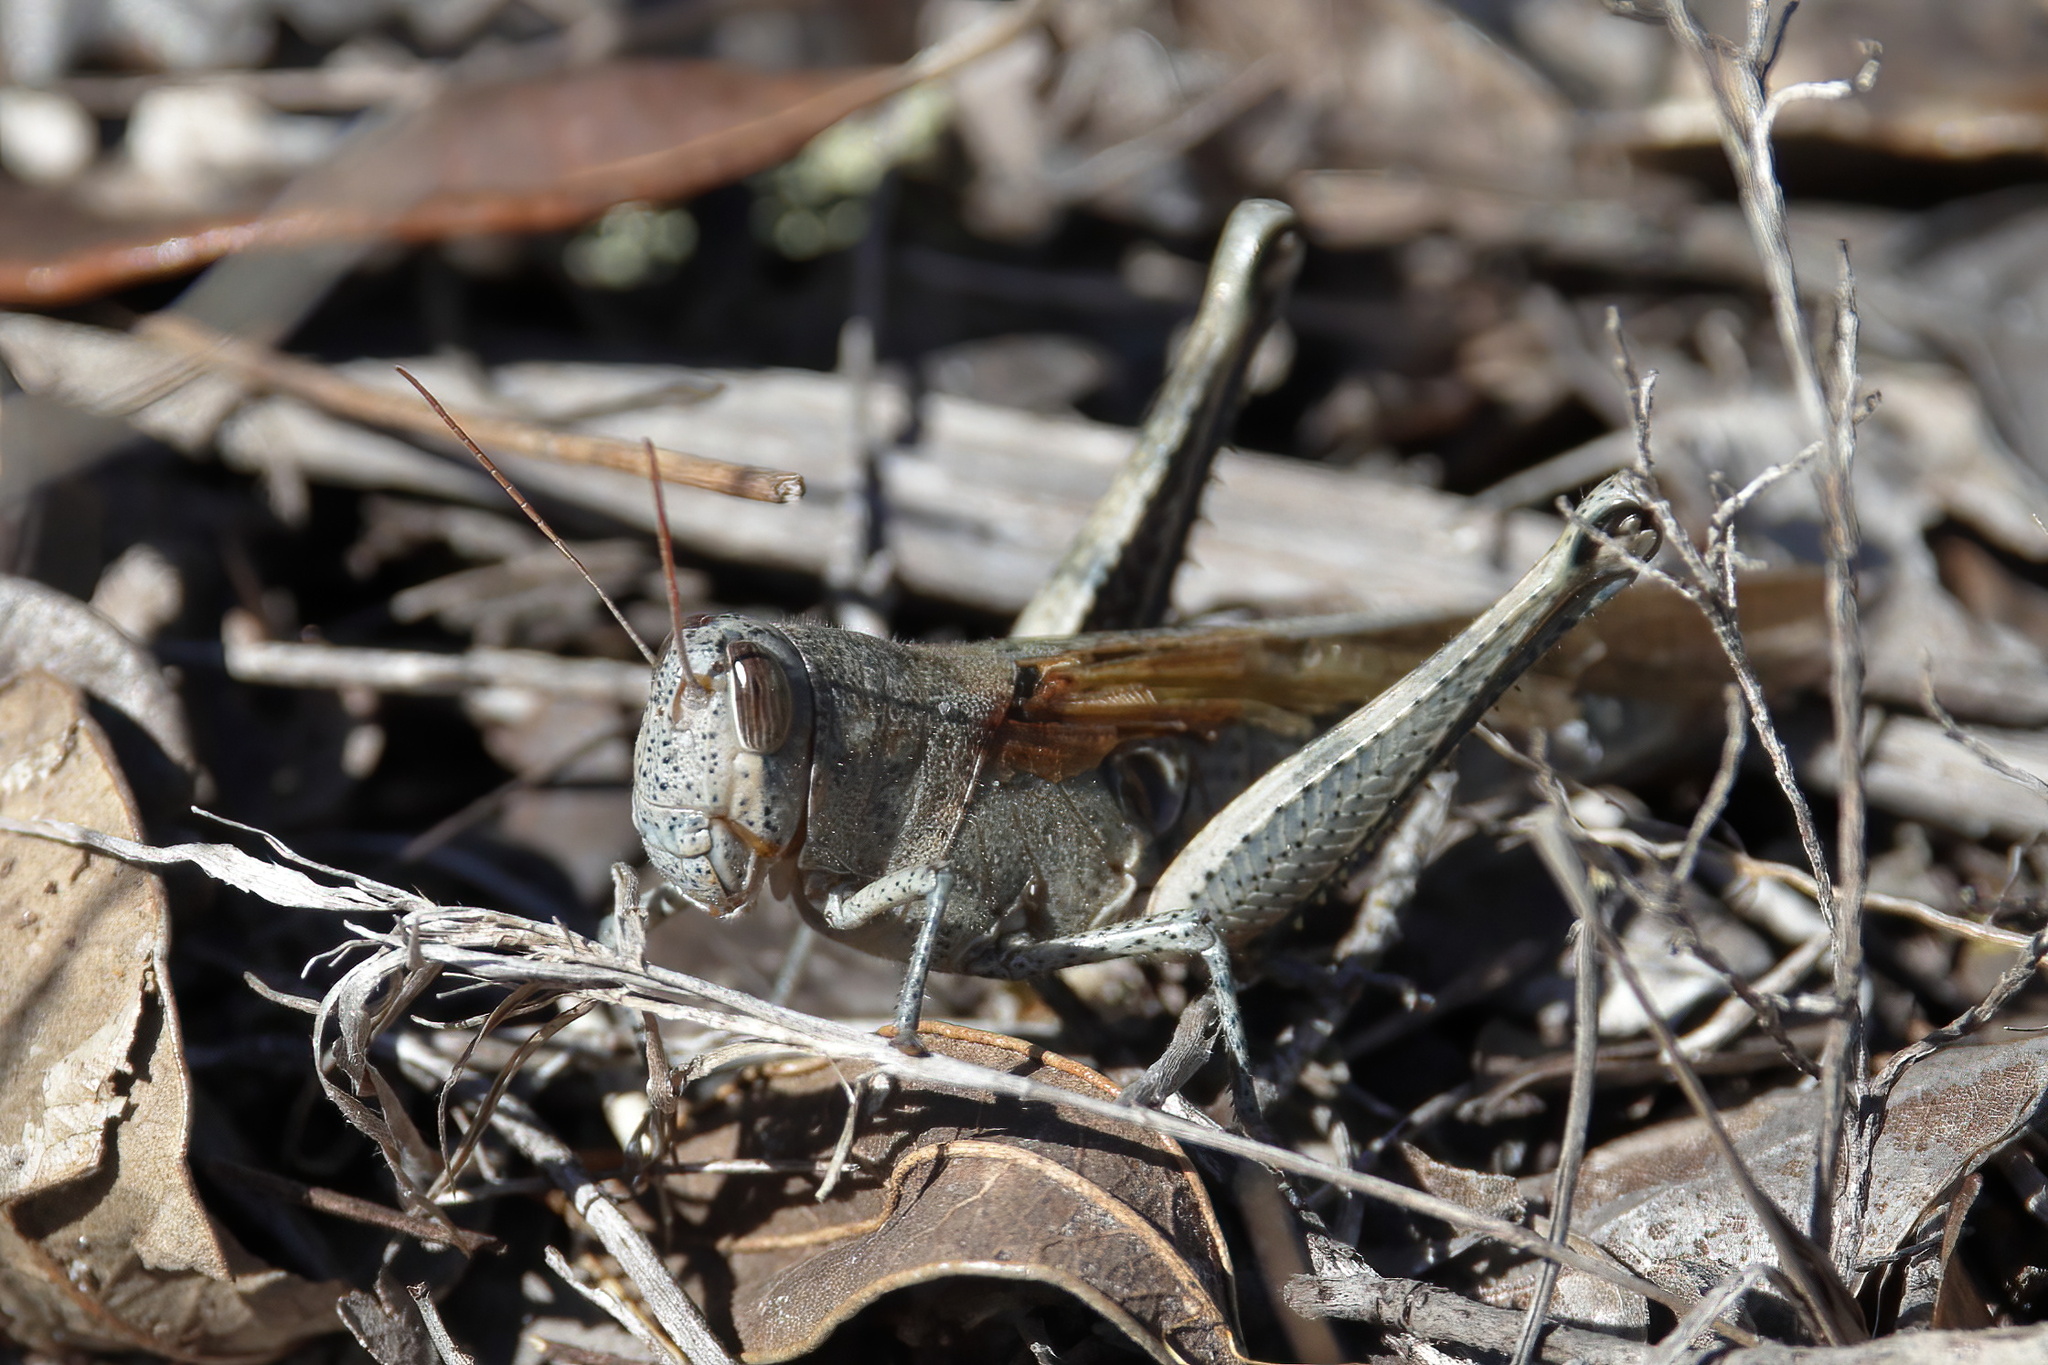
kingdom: Animalia
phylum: Arthropoda
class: Insecta
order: Orthoptera
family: Acrididae
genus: Schistocerca
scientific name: Schistocerca rubiginosa
